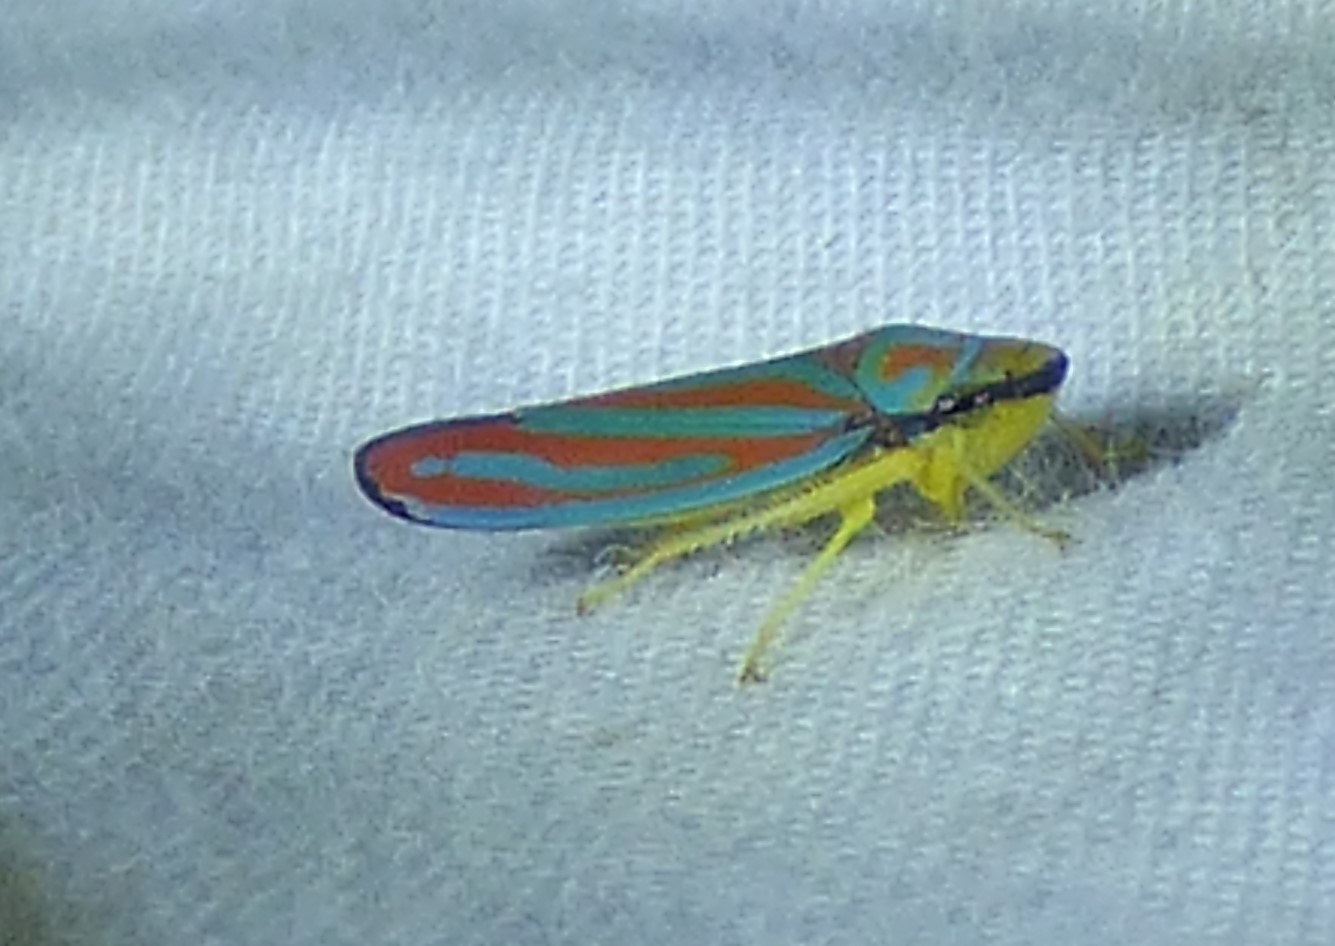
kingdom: Animalia
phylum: Arthropoda
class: Insecta
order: Hemiptera
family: Cicadellidae
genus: Graphocephala
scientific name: Graphocephala coccinea
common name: Candy-striped leafhopper
